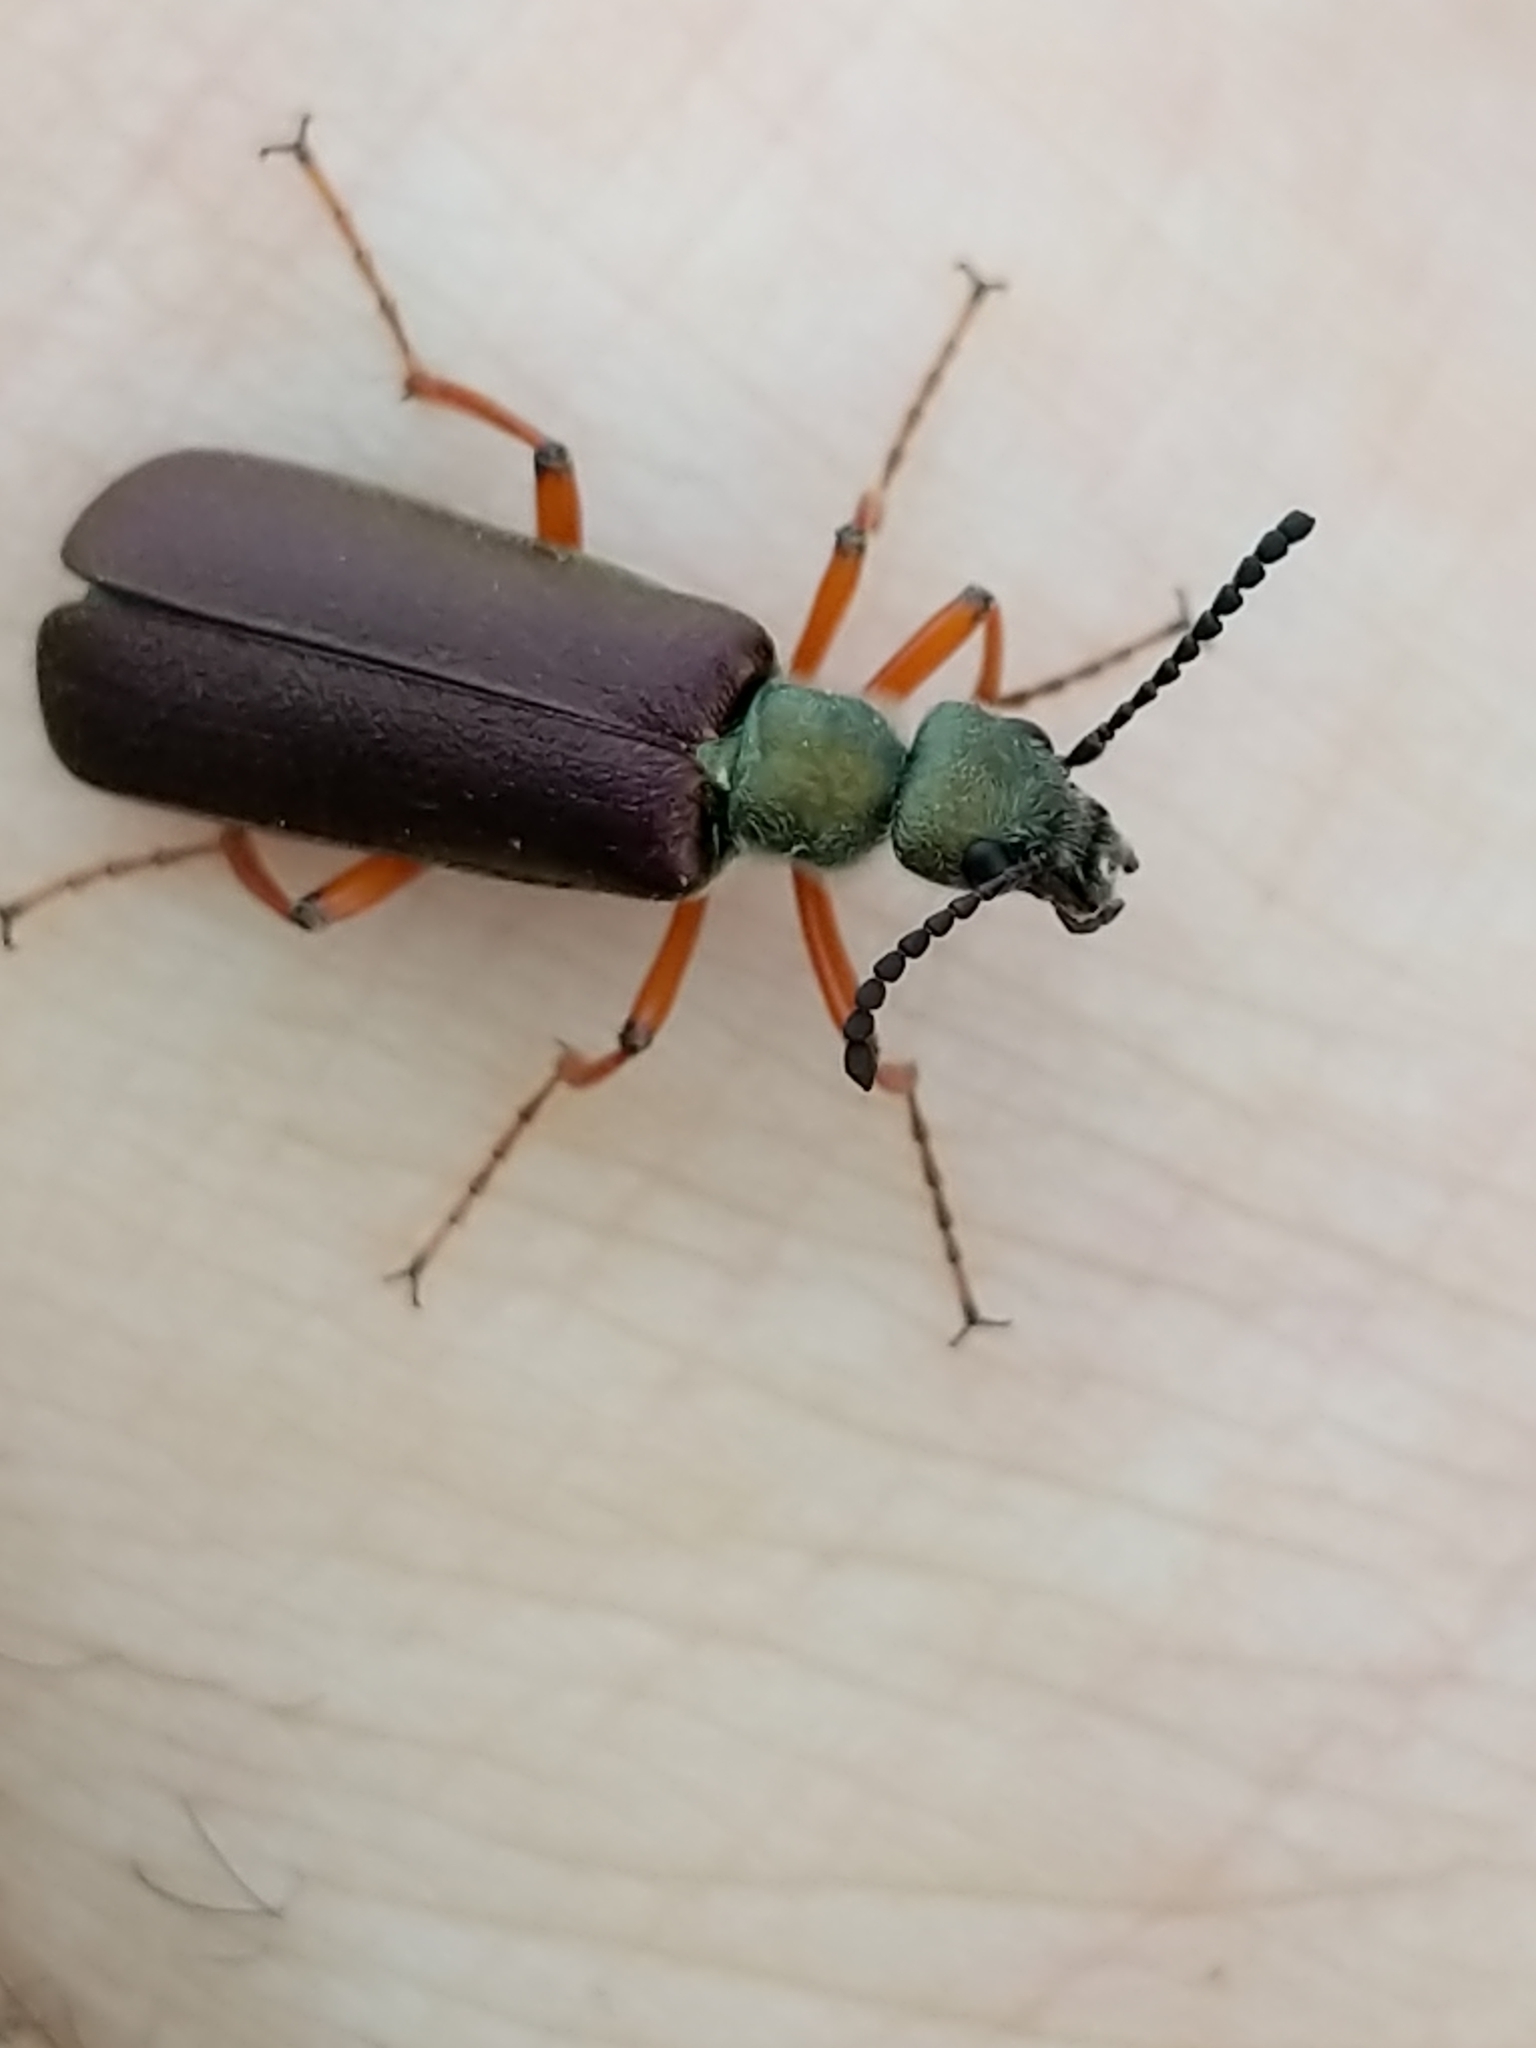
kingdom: Animalia
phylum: Arthropoda
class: Insecta
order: Coleoptera
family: Meloidae
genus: Lytta
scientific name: Lytta aenea
